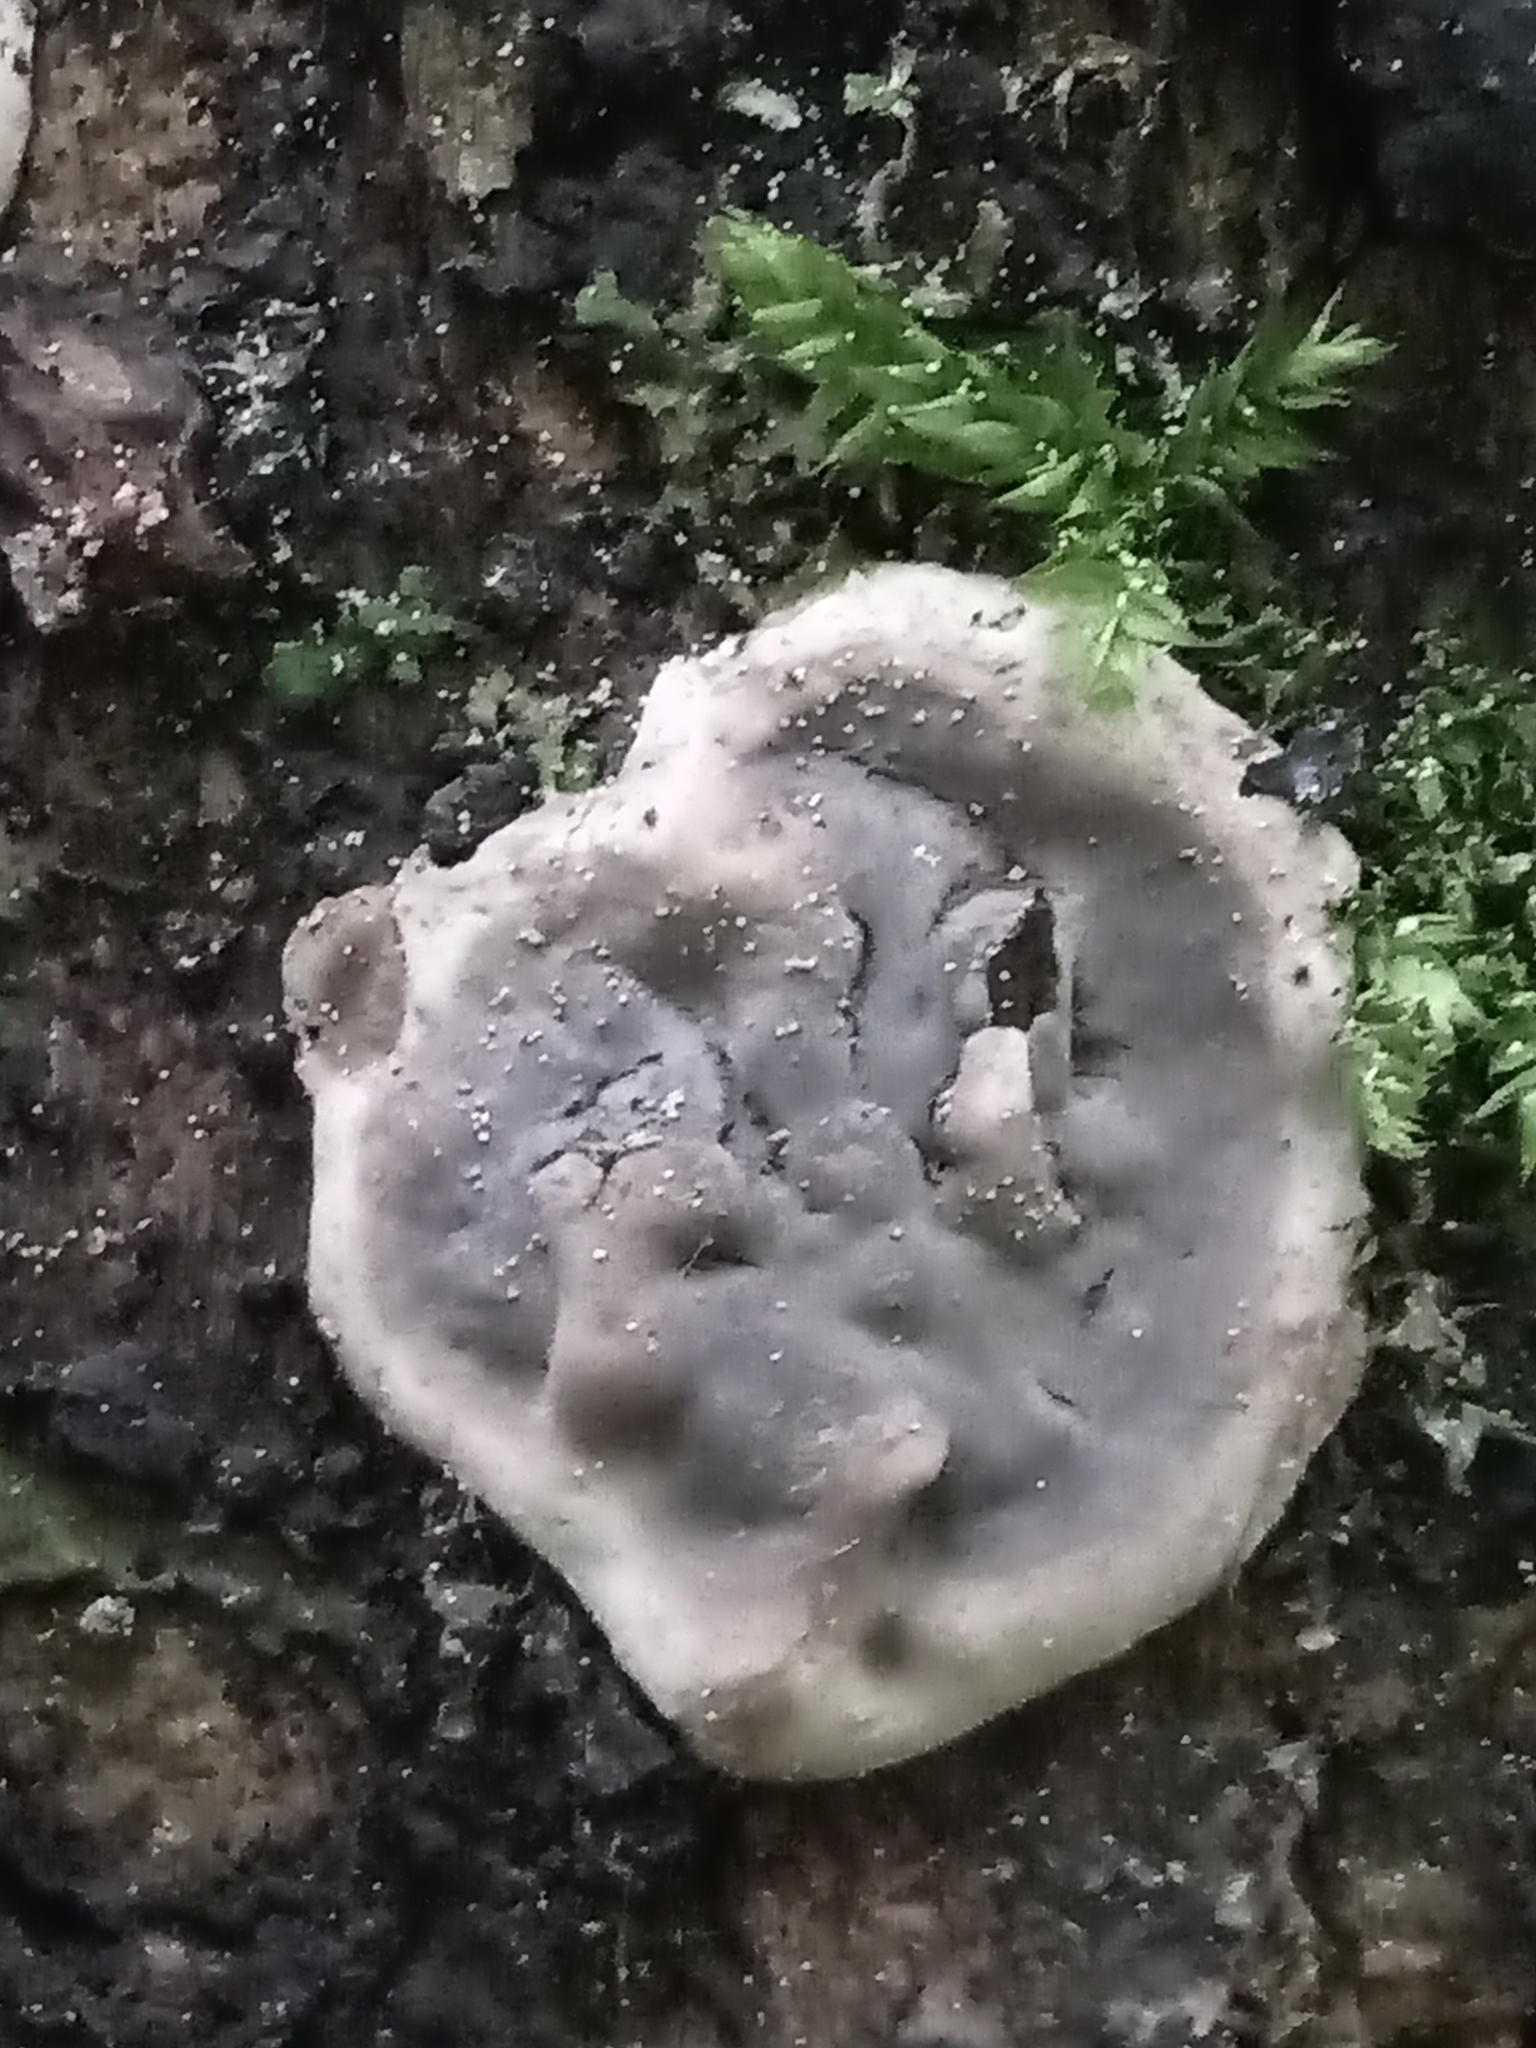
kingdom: Fungi
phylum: Ascomycota
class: Sordariomycetes
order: Xylariales
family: Xylariaceae
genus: Kretzschmaria
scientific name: Kretzschmaria deusta
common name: Brittle cinder
